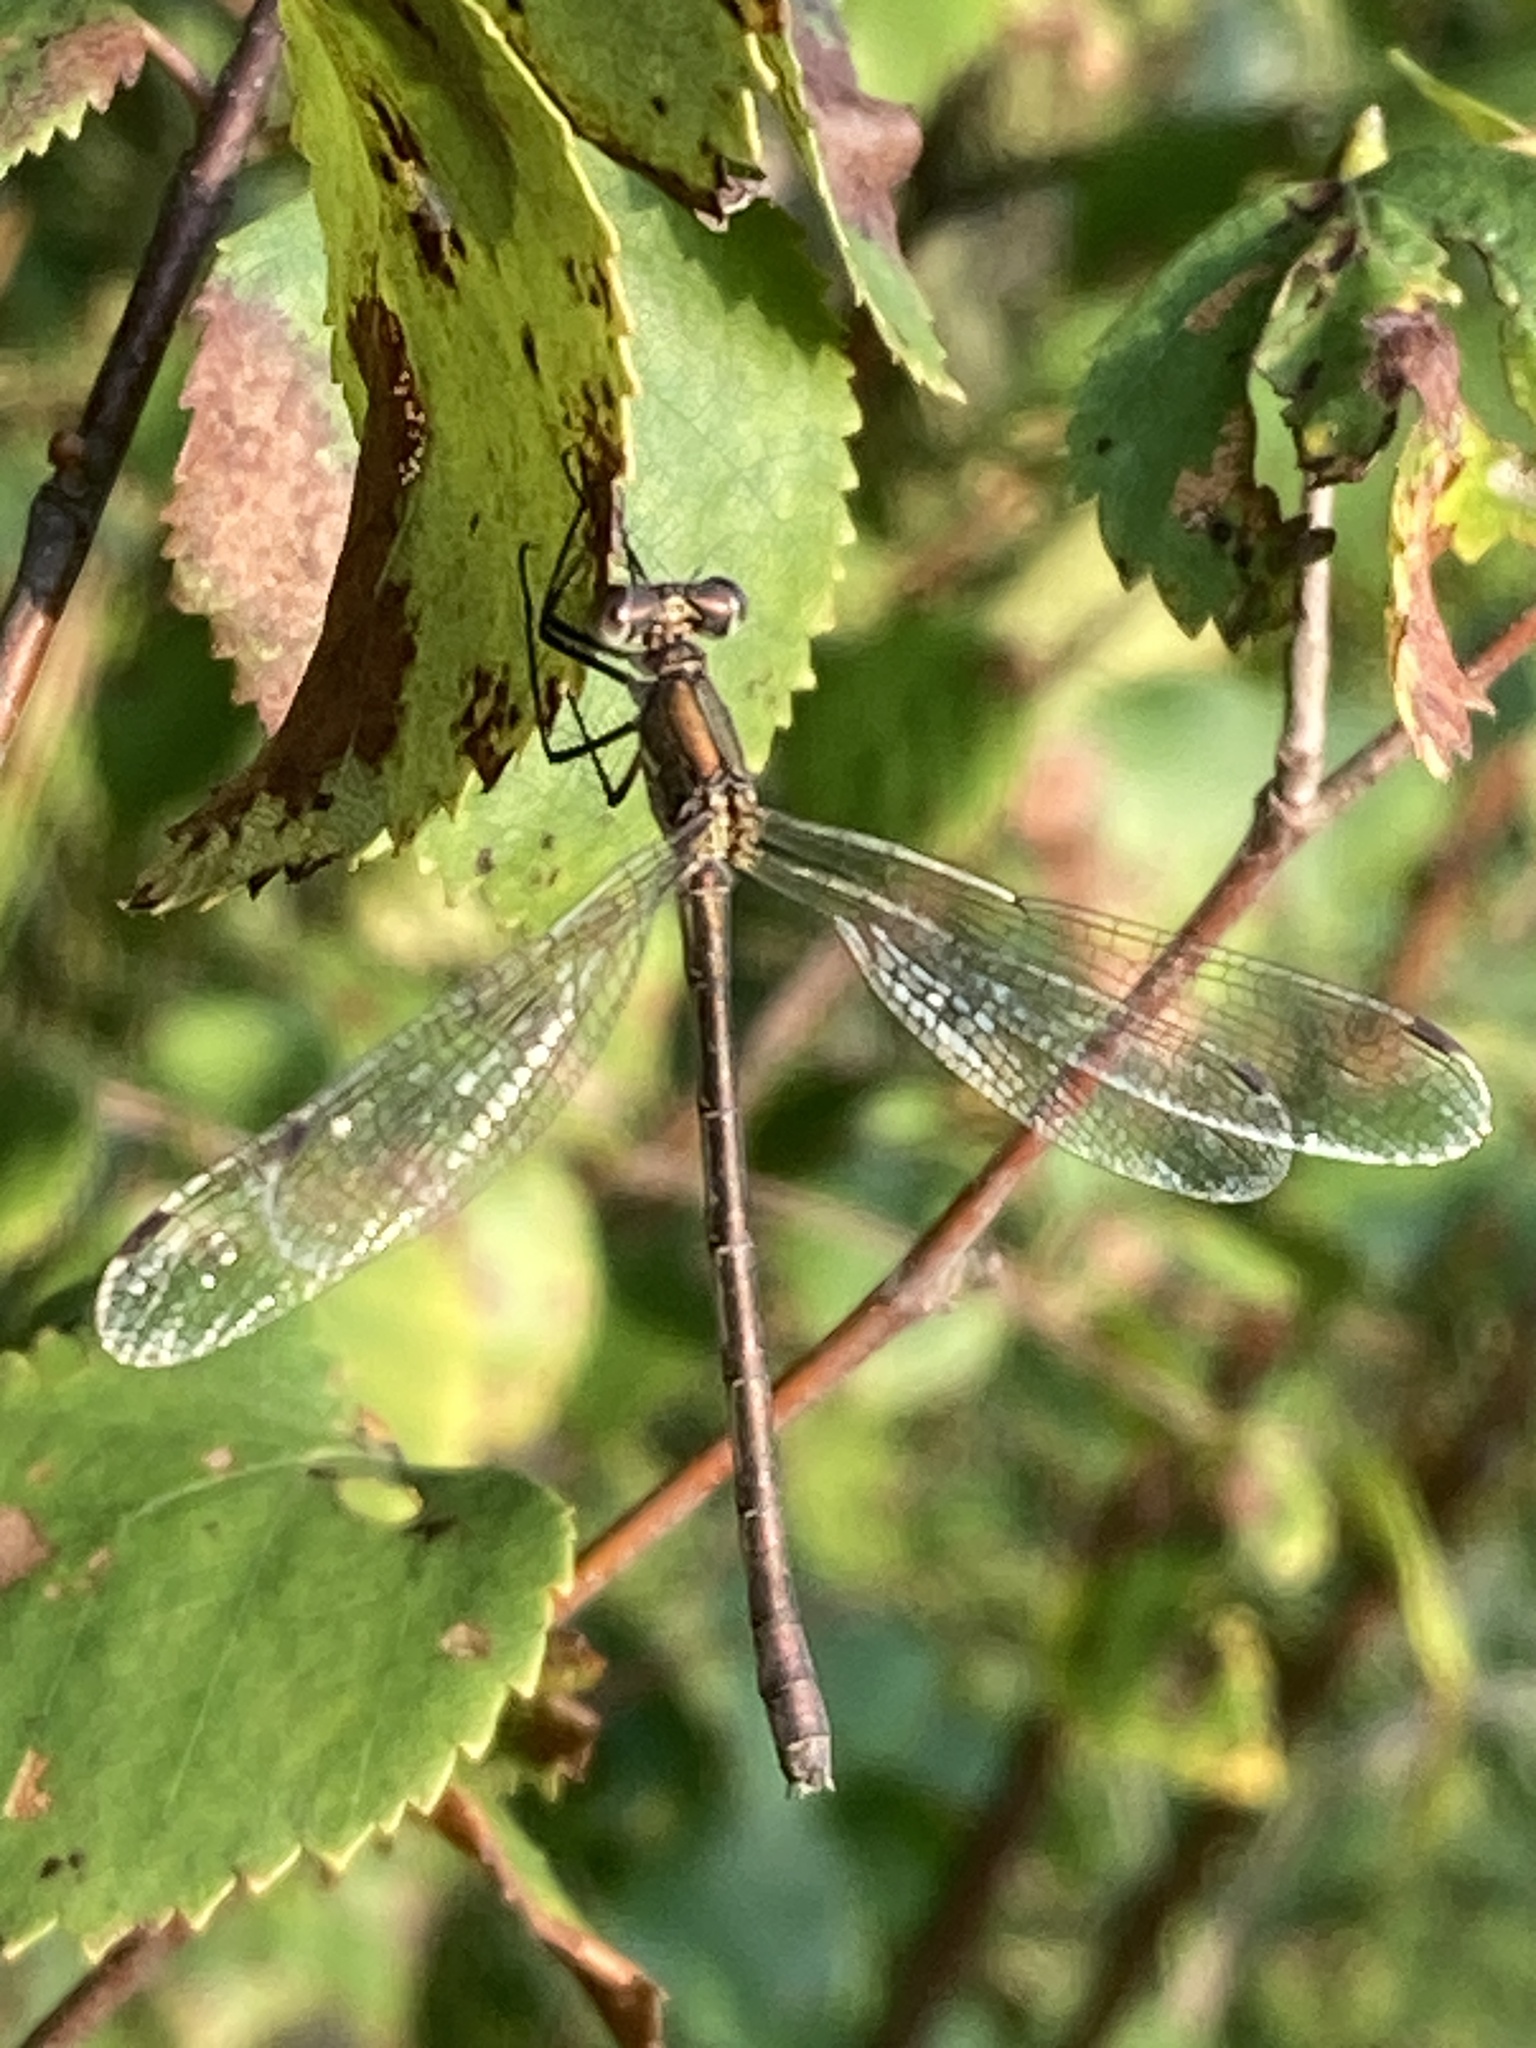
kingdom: Animalia
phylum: Arthropoda
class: Insecta
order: Odonata
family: Lestidae
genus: Lestes
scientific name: Lestes sponsa
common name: Common spreadwing
